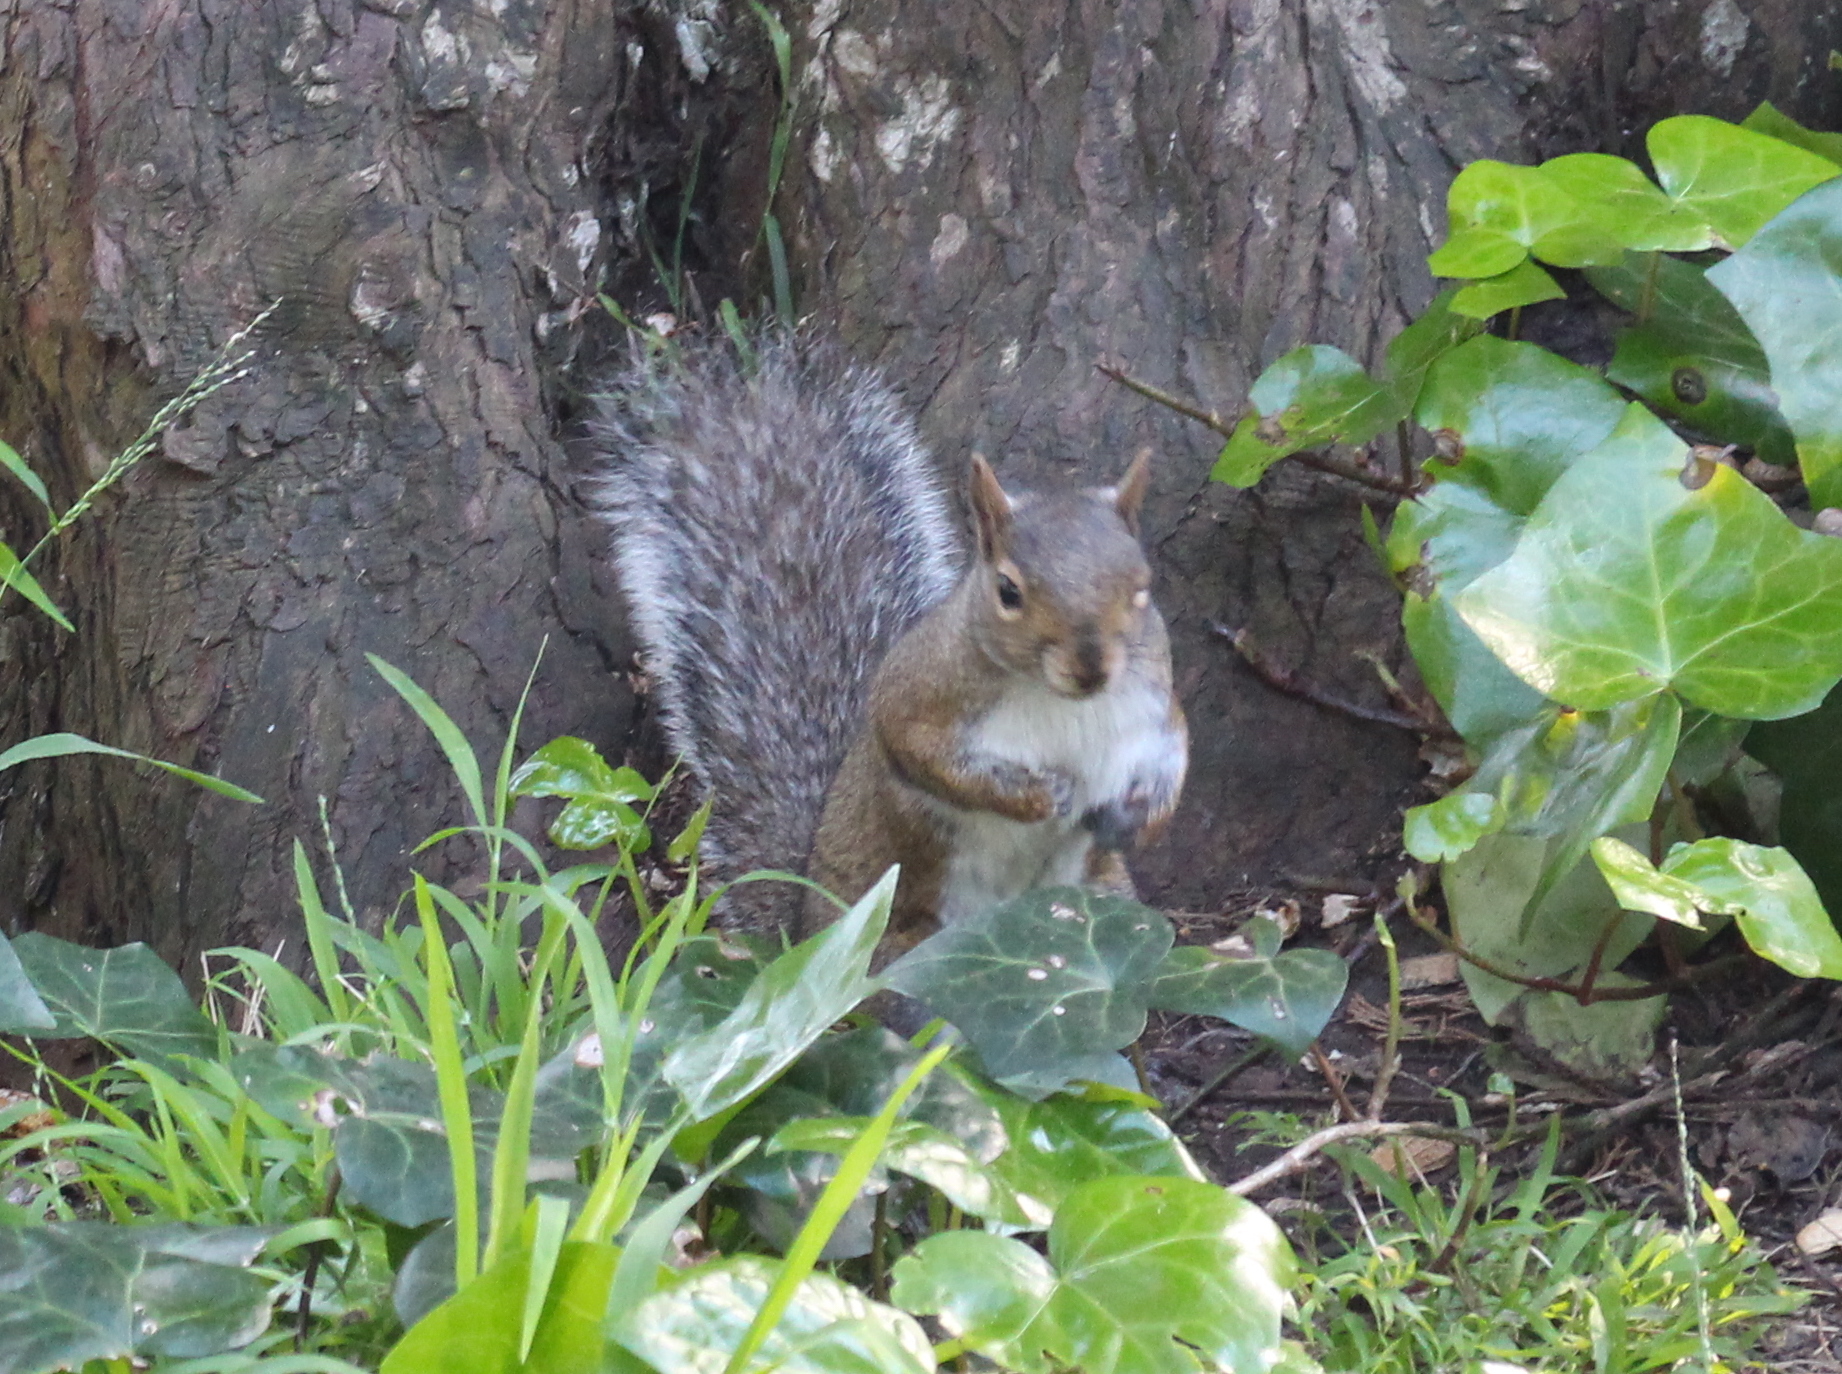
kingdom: Animalia
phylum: Chordata
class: Mammalia
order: Rodentia
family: Sciuridae
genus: Sciurus
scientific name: Sciurus carolinensis
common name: Eastern gray squirrel
